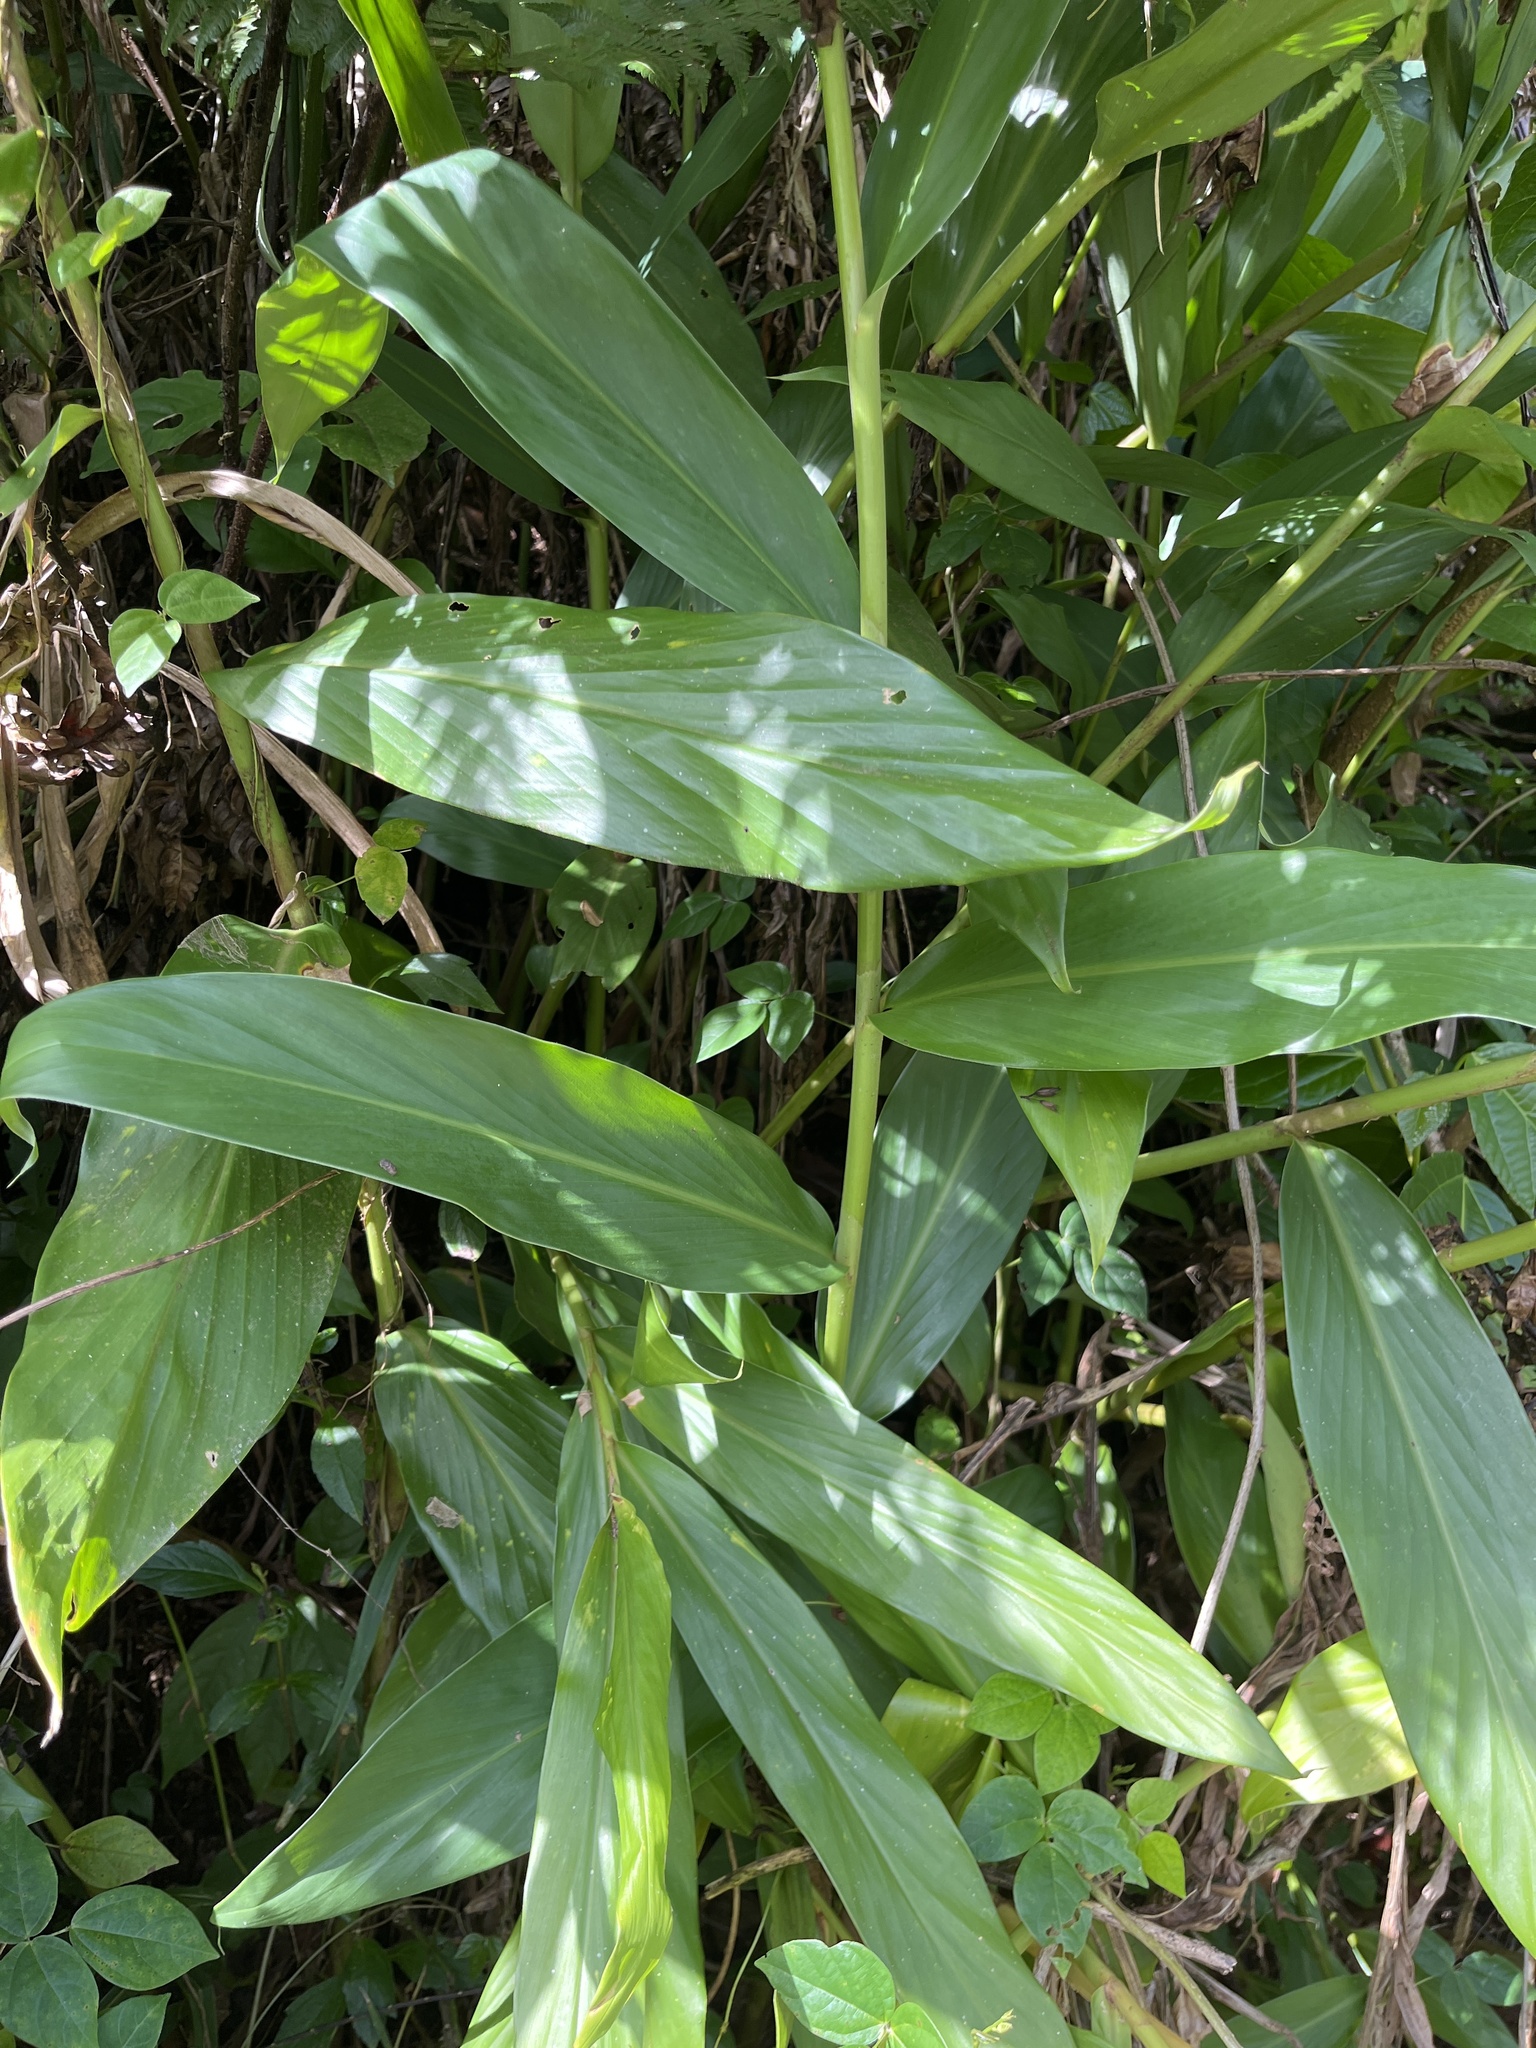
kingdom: Plantae
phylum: Tracheophyta
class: Liliopsida
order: Zingiberales
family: Zingiberaceae
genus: Hedychium
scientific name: Hedychium coronarium
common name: White garland-lily
